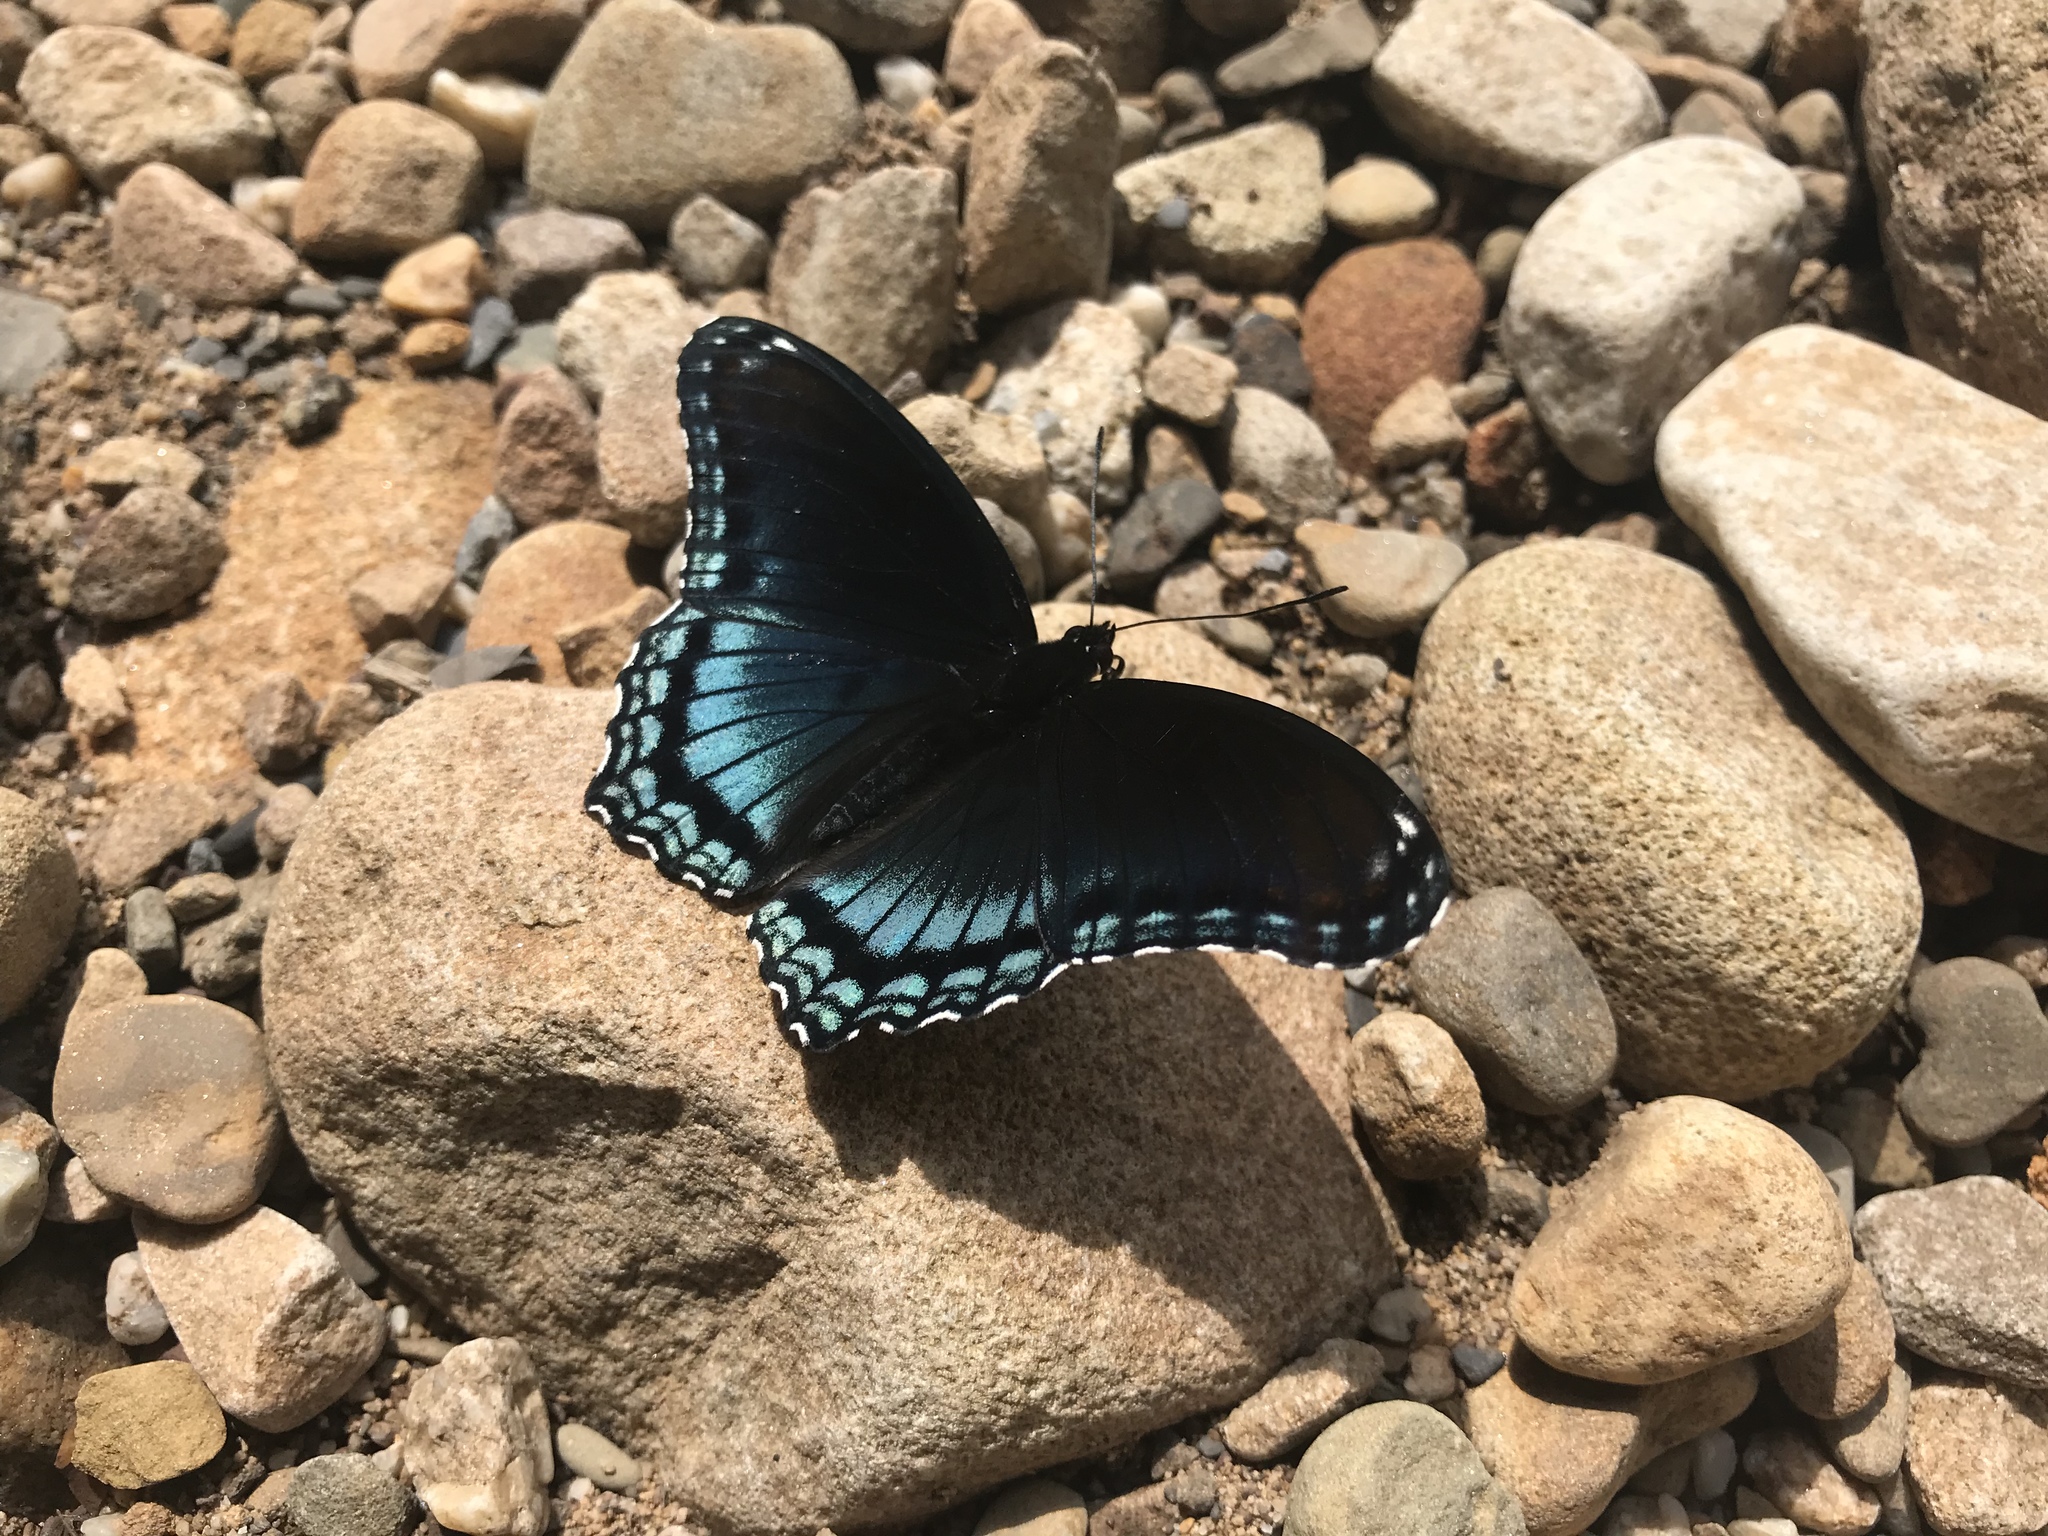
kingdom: Animalia
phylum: Arthropoda
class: Insecta
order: Lepidoptera
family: Nymphalidae
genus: Limenitis
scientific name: Limenitis arthemis
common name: Red-spotted admiral
